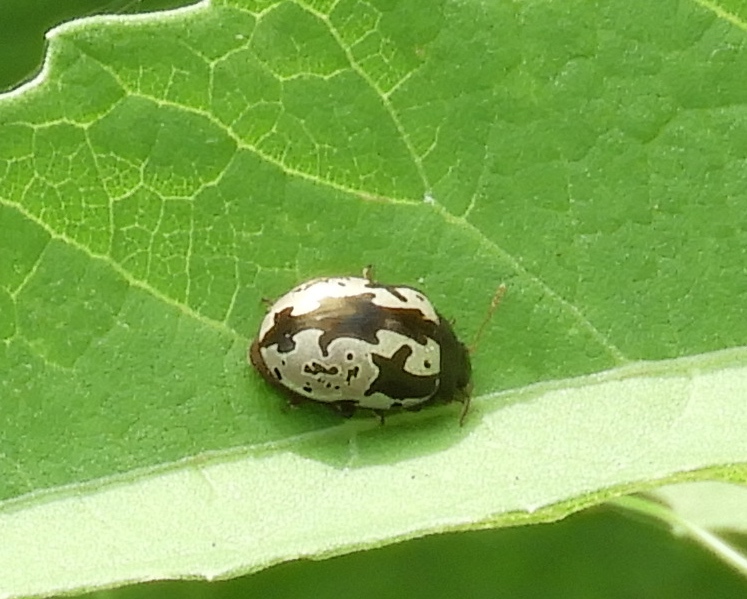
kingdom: Animalia
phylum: Arthropoda
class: Insecta
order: Coleoptera
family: Chrysomelidae
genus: Calligrapha
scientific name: Calligrapha intermedia
